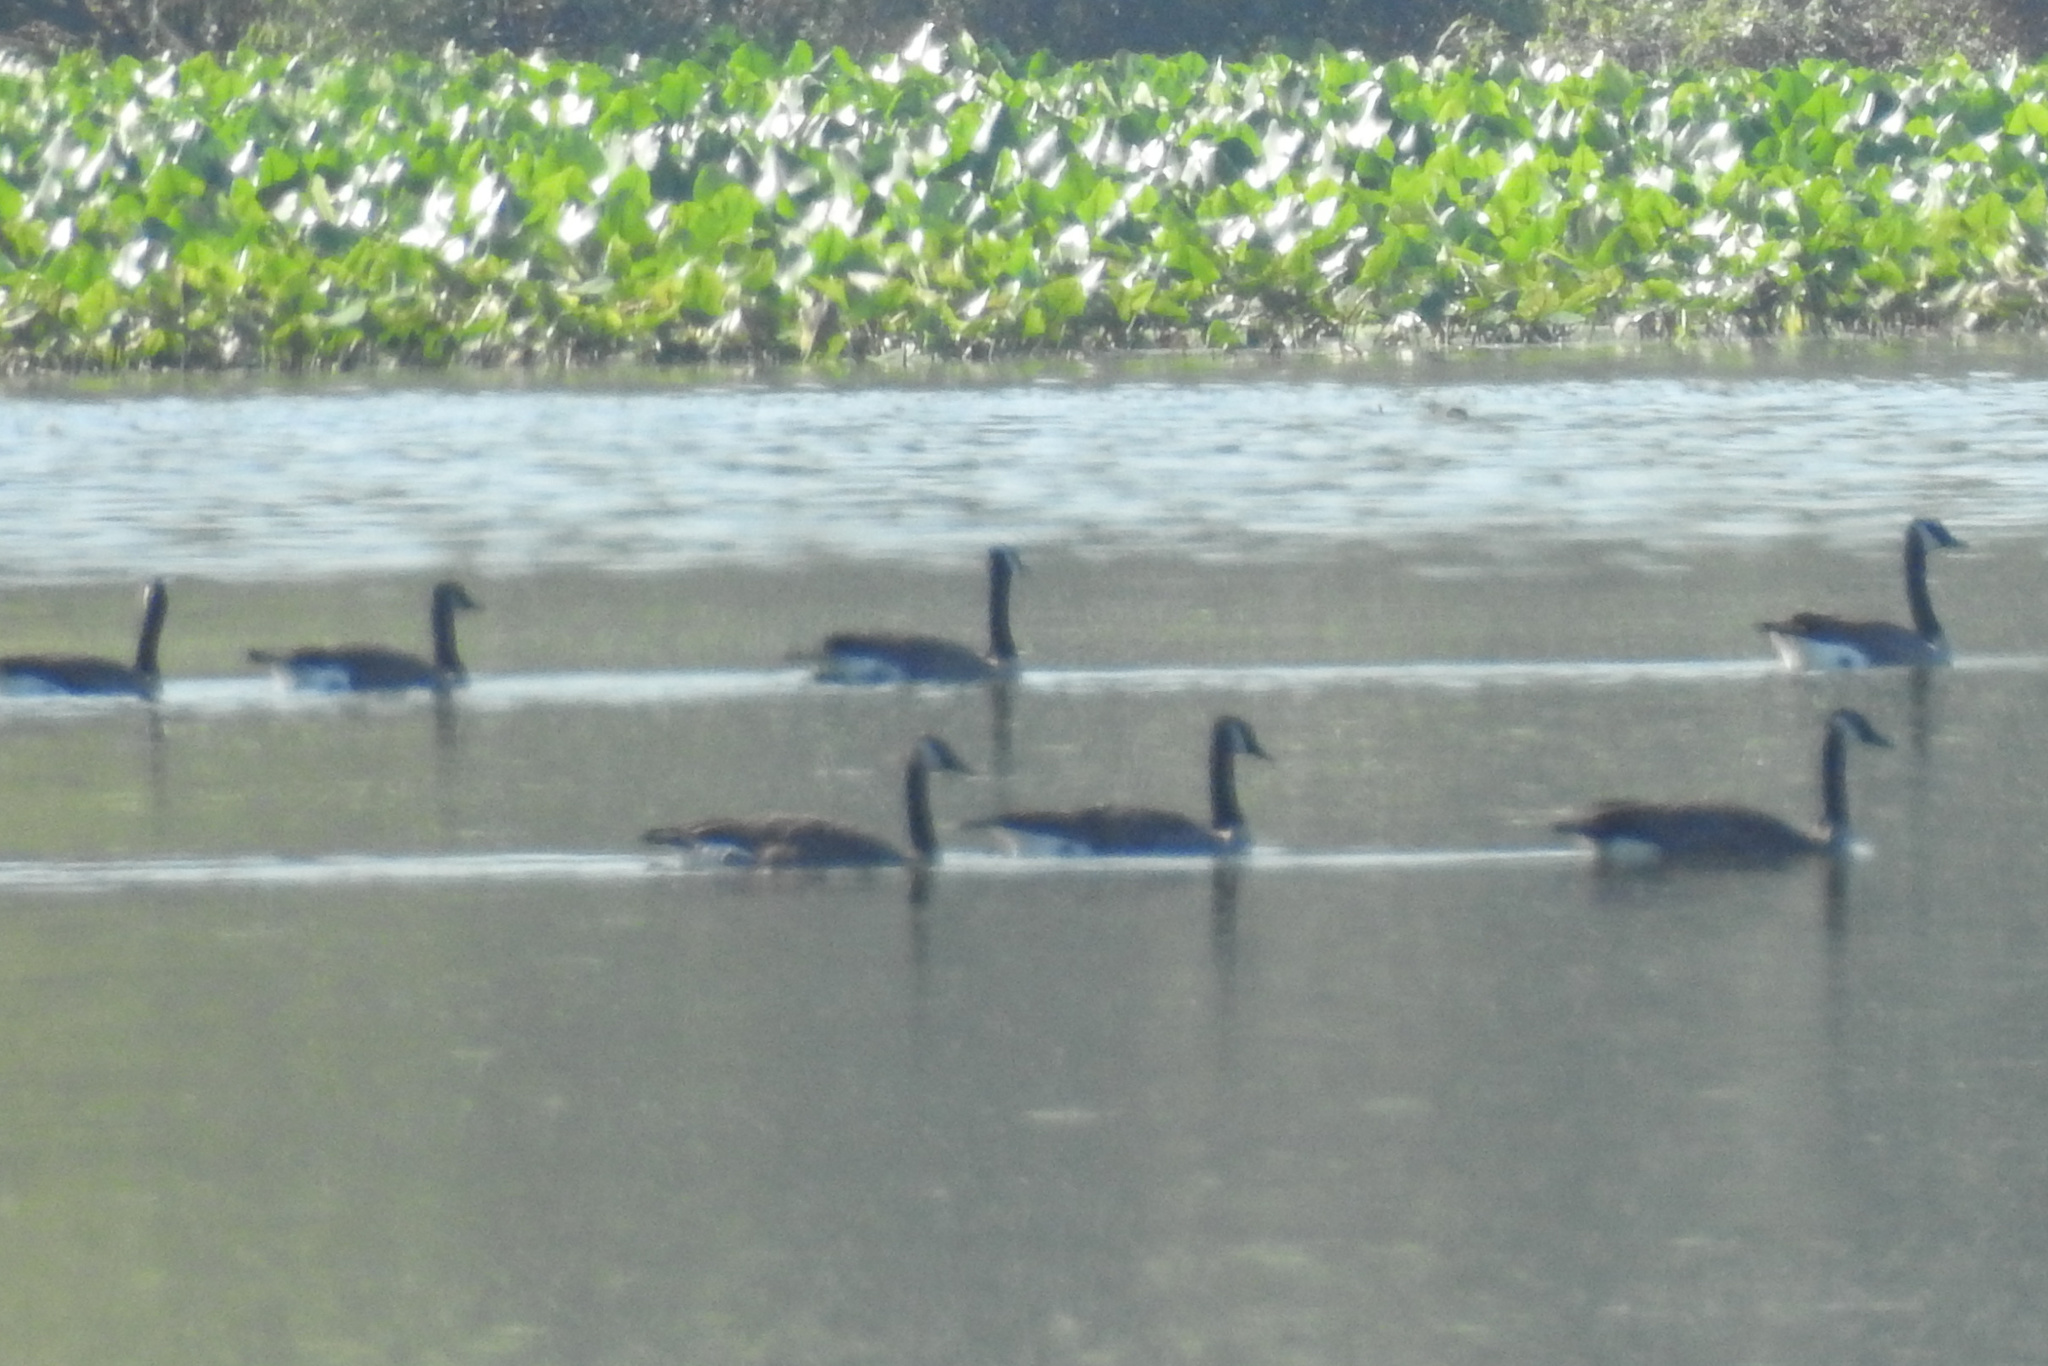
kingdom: Animalia
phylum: Chordata
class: Aves
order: Anseriformes
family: Anatidae
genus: Branta
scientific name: Branta canadensis
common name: Canada goose
